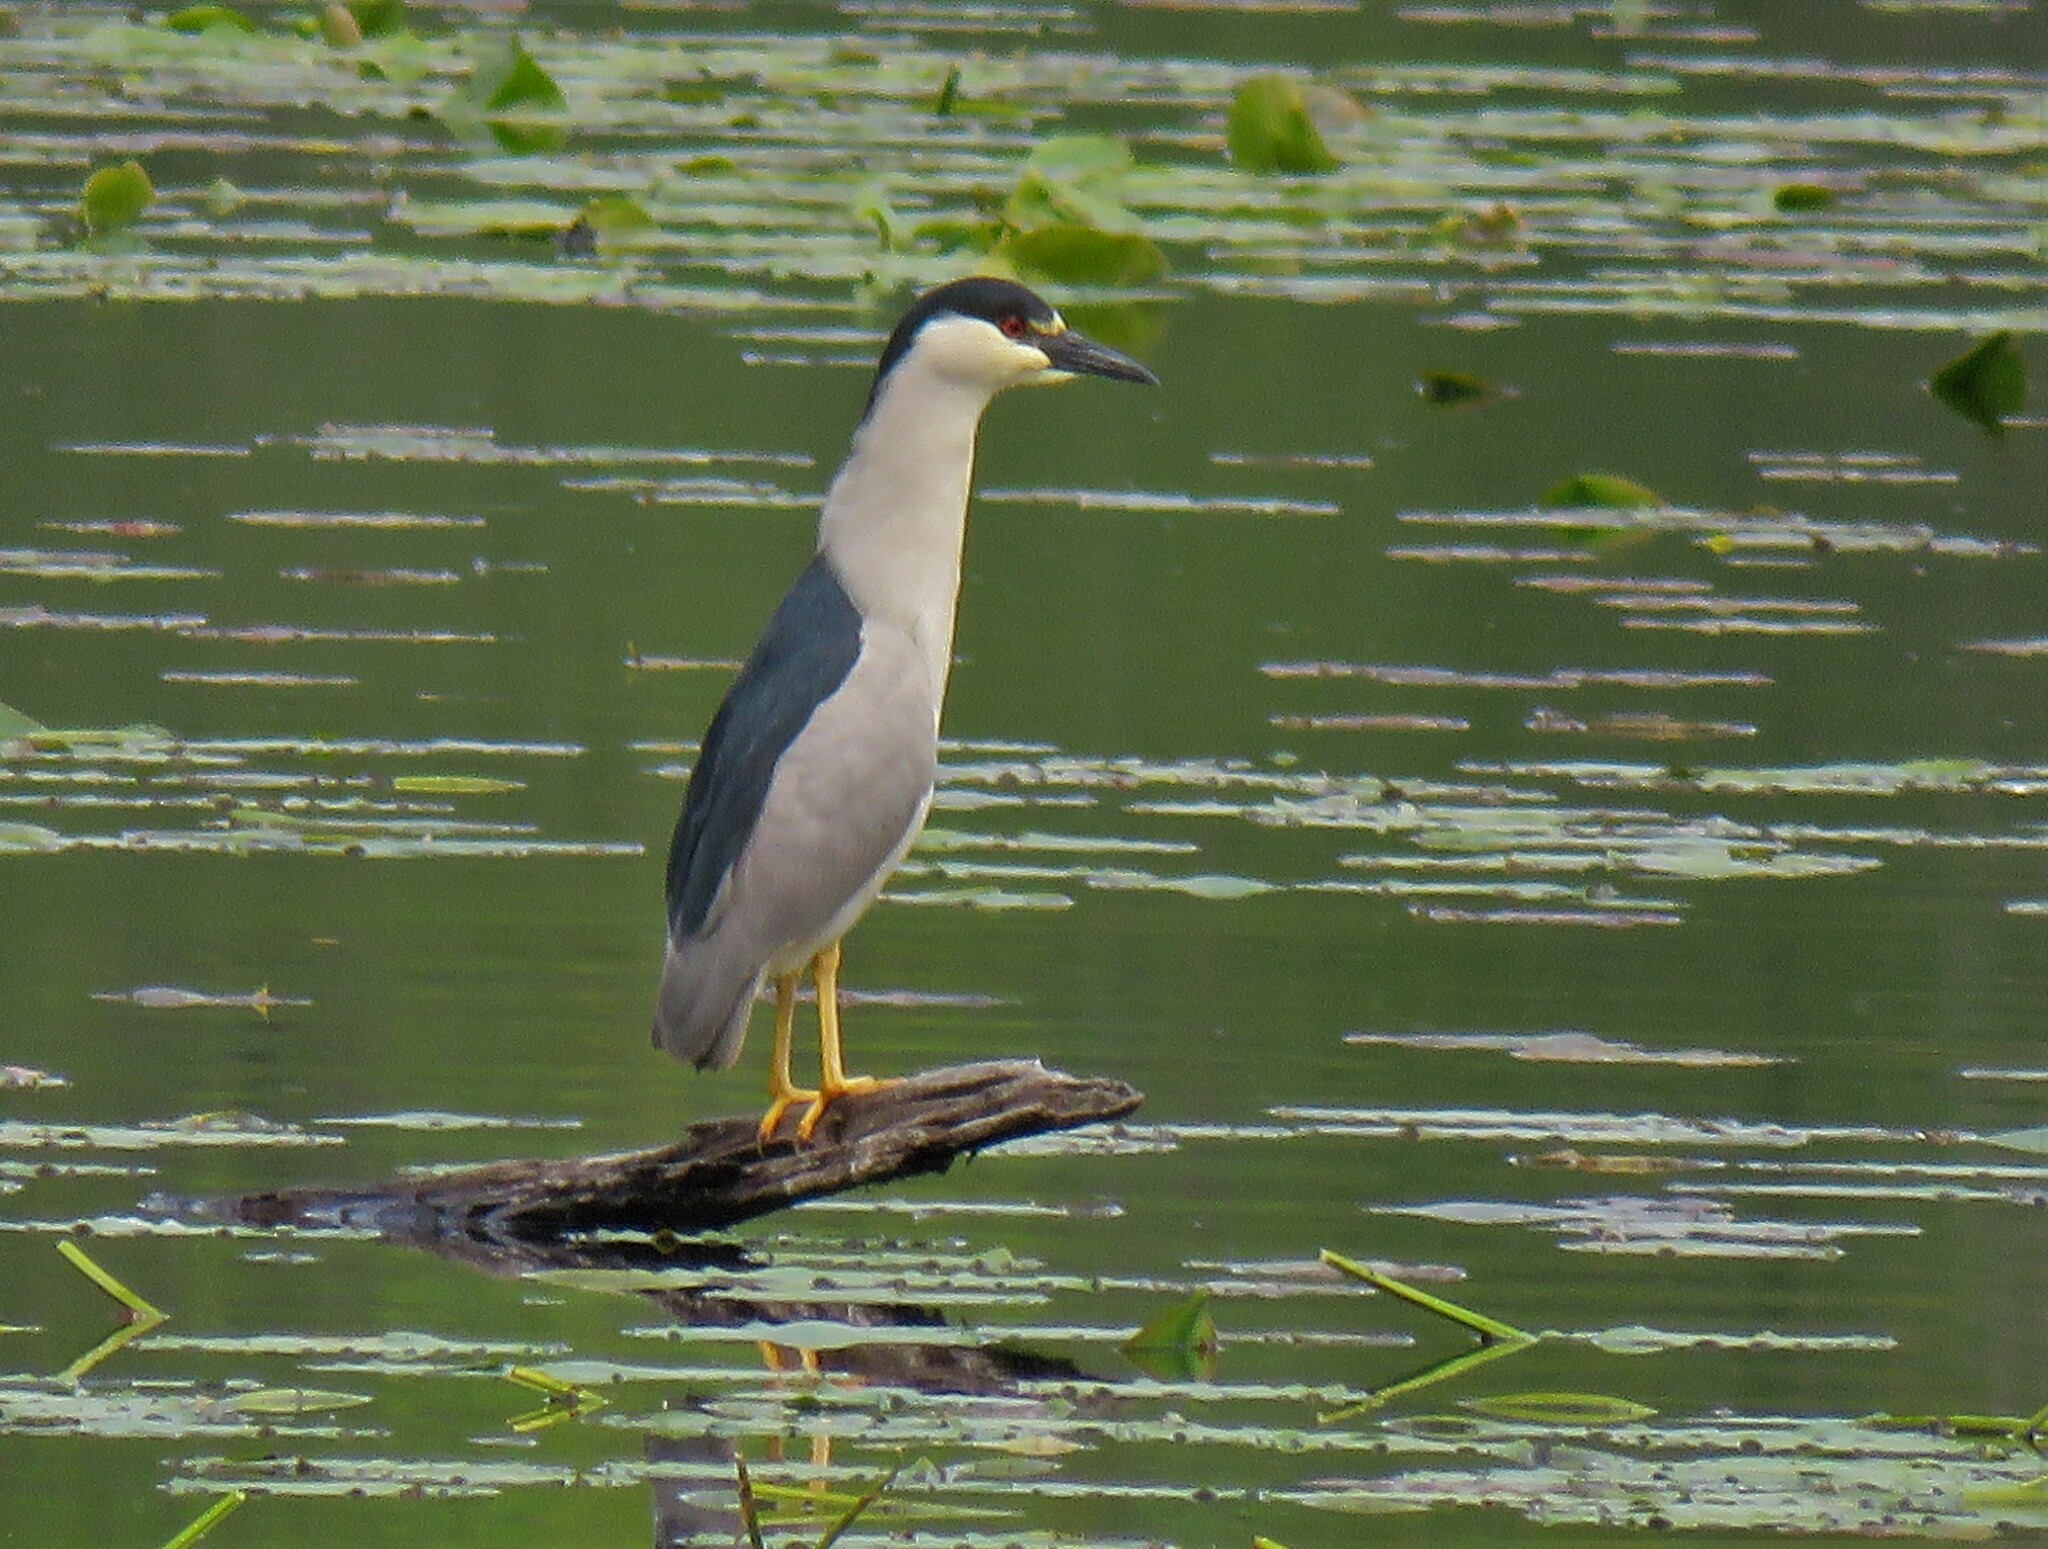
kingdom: Animalia
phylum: Chordata
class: Aves
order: Pelecaniformes
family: Ardeidae
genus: Nycticorax
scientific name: Nycticorax nycticorax
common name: Black-crowned night heron
